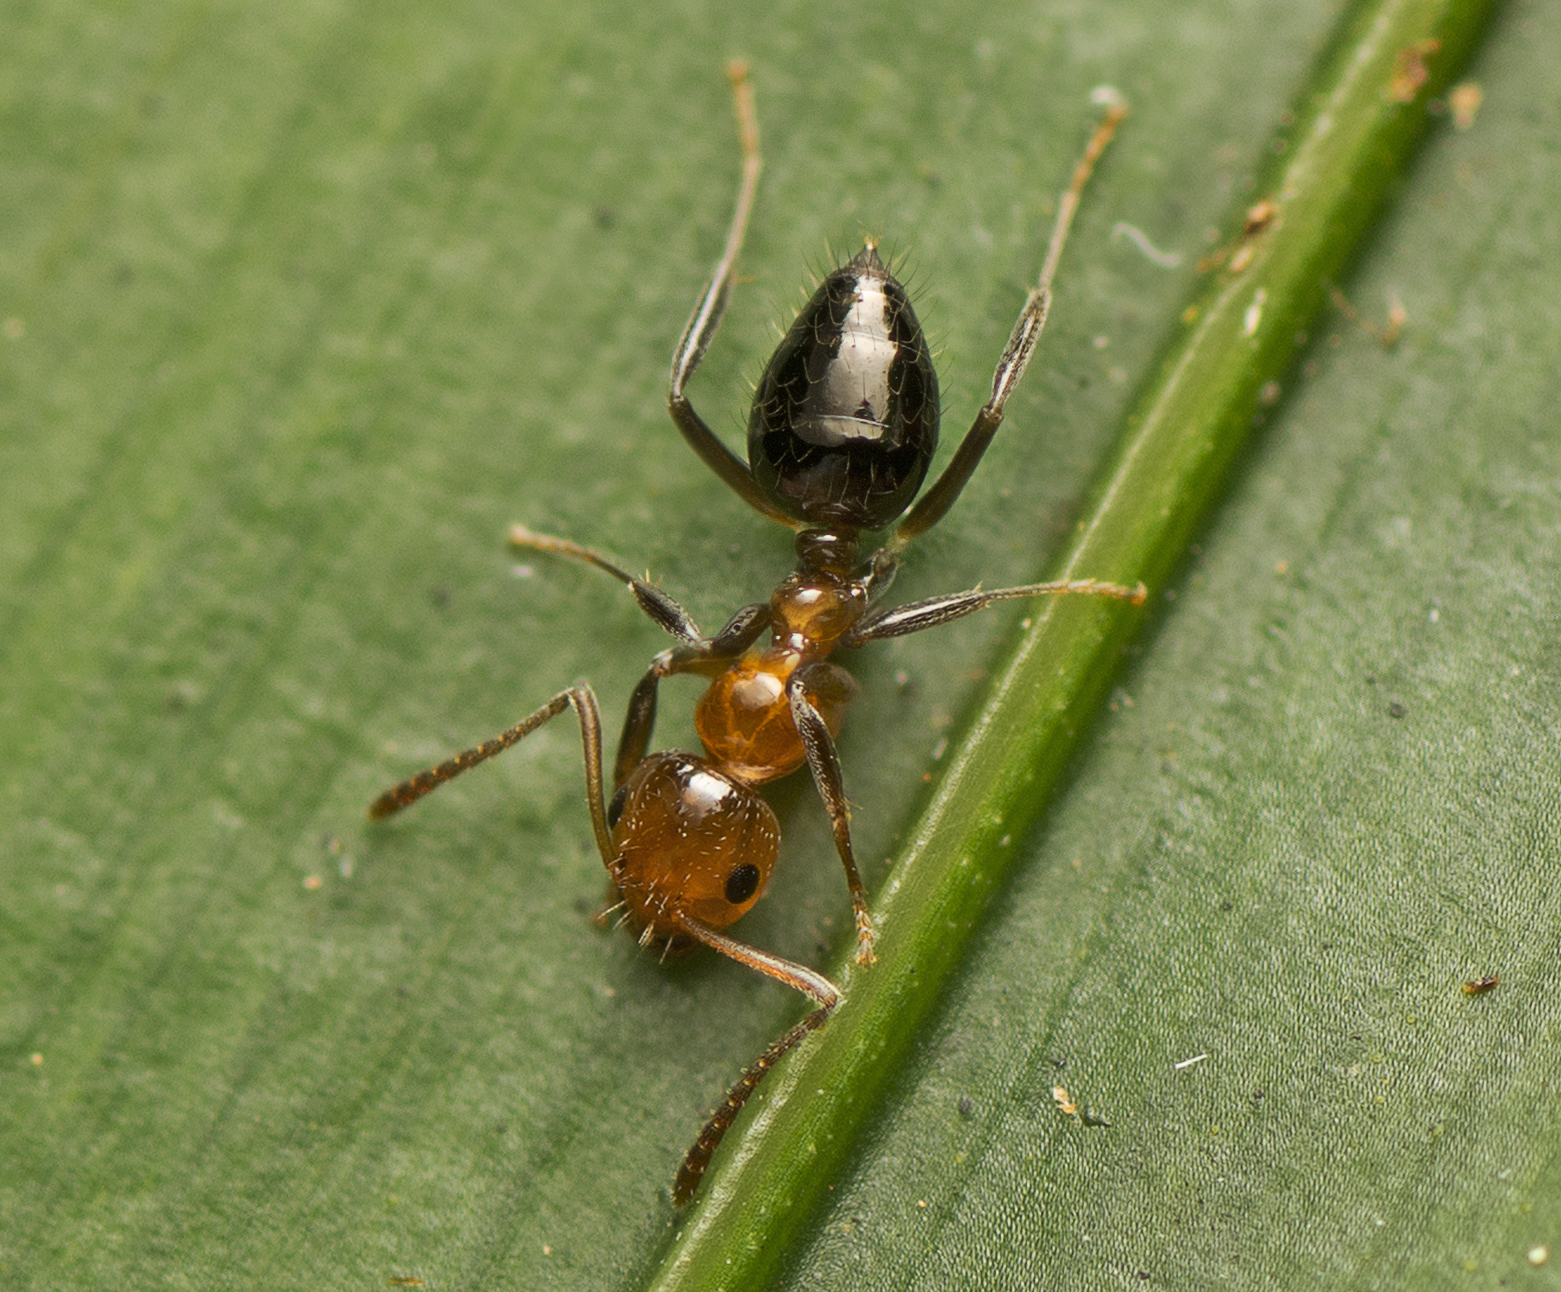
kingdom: Animalia
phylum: Arthropoda
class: Insecta
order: Hymenoptera
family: Formicidae
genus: Prolasius
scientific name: Prolasius convexus
